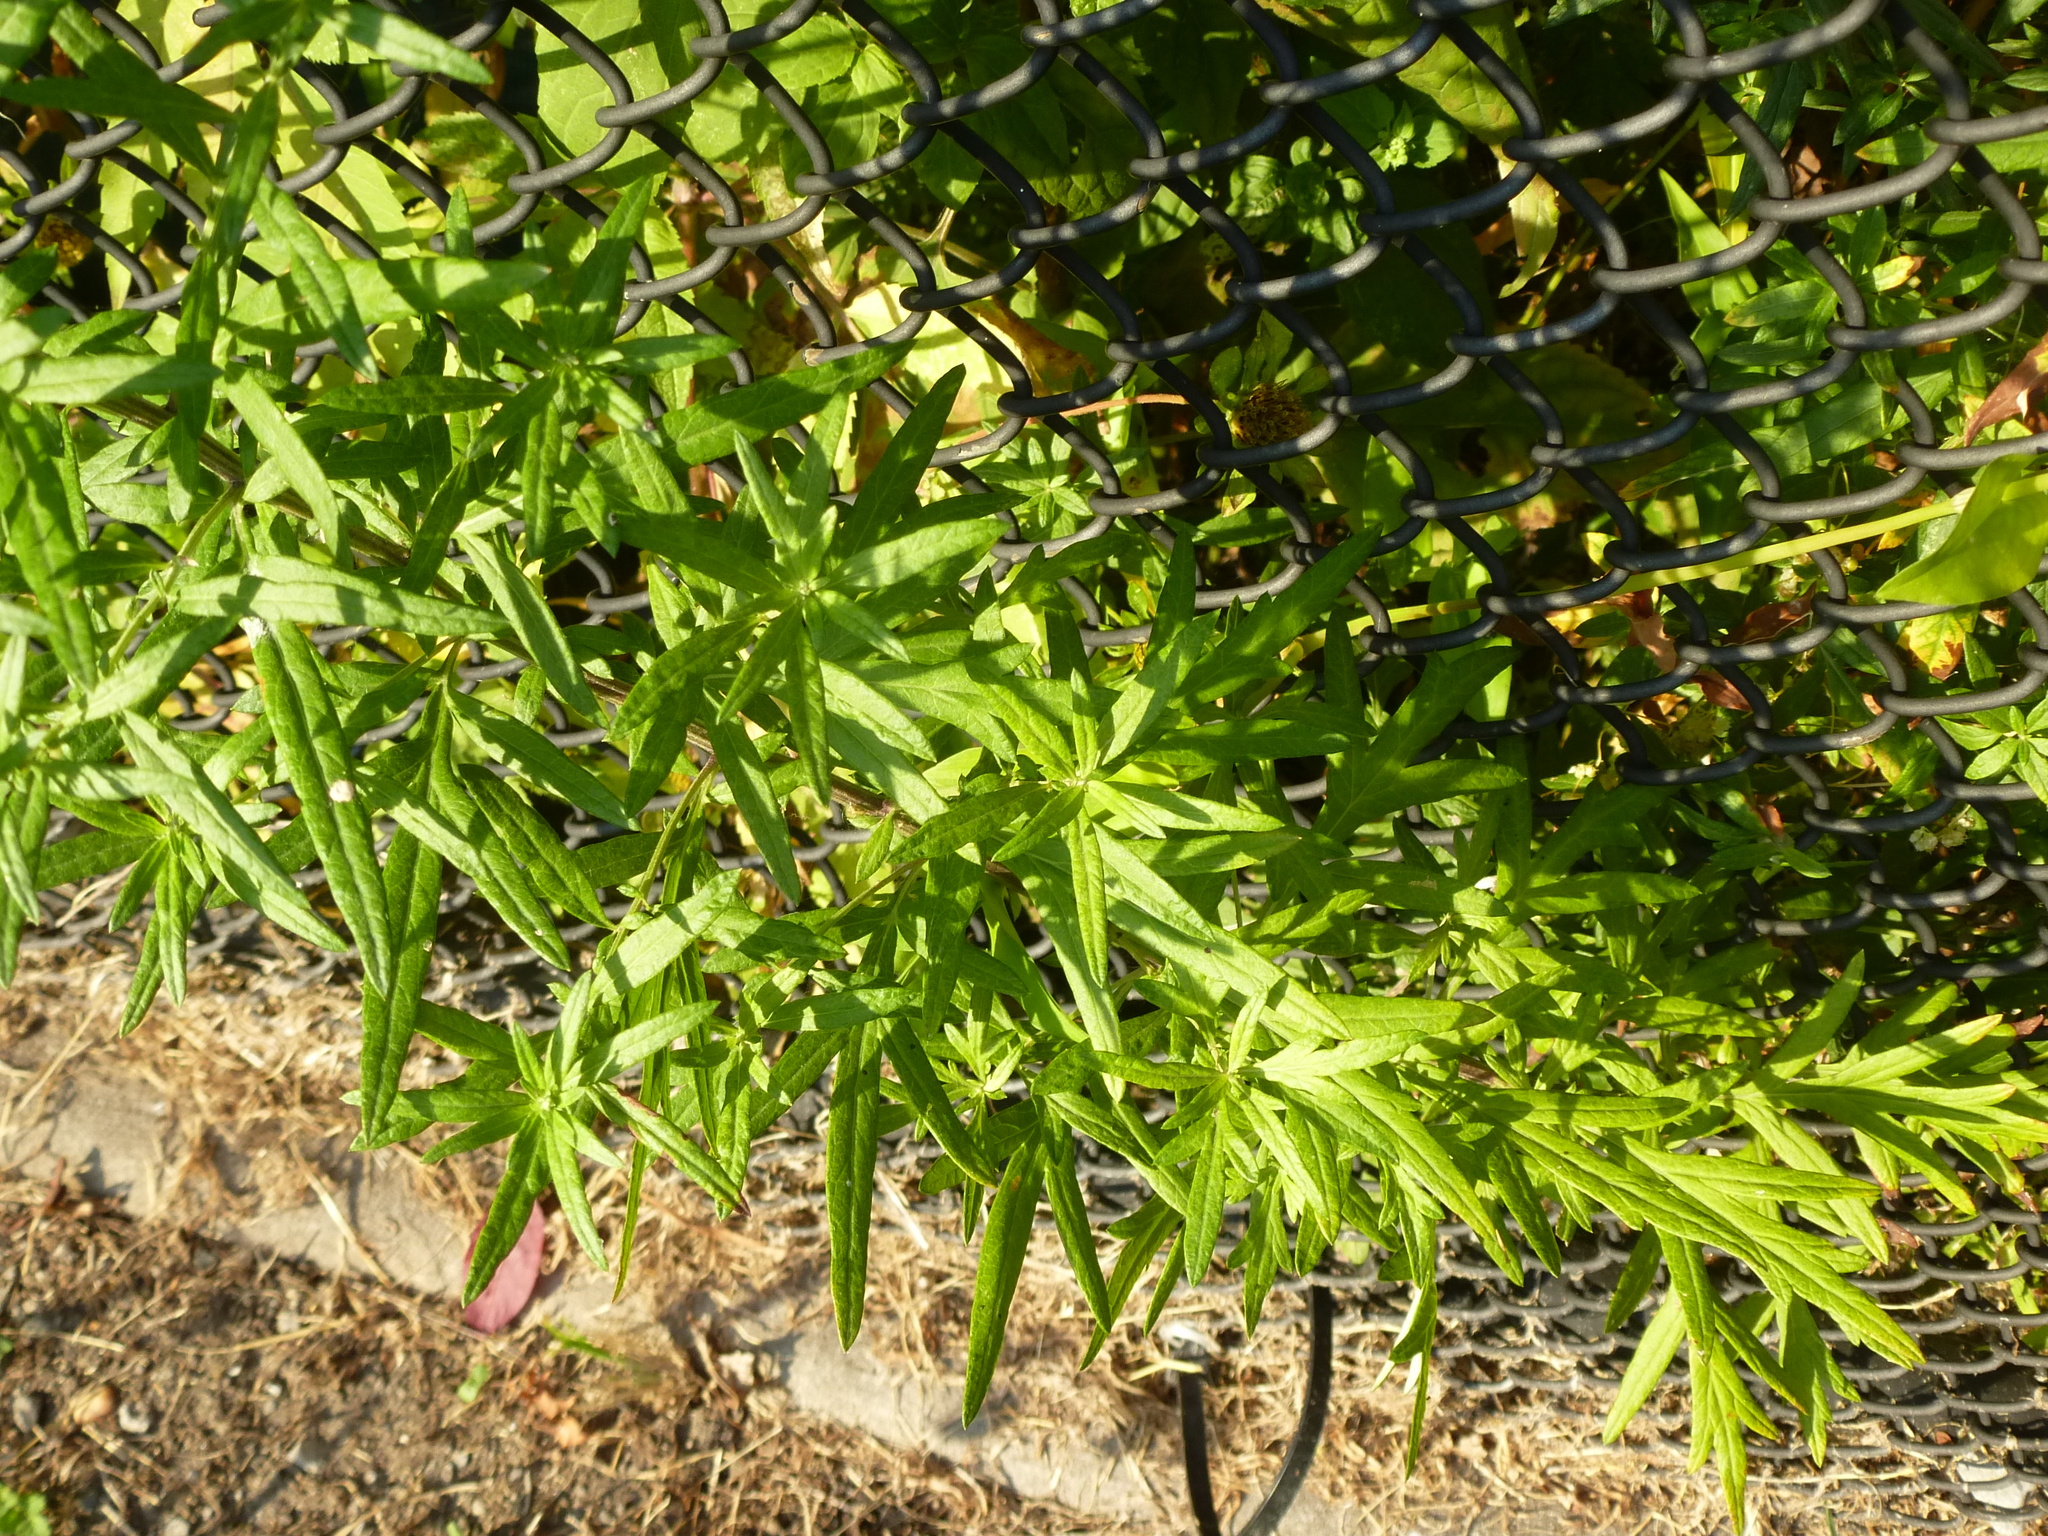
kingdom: Plantae
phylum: Tracheophyta
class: Magnoliopsida
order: Asterales
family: Asteraceae
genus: Artemisia
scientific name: Artemisia vulgaris
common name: Mugwort
